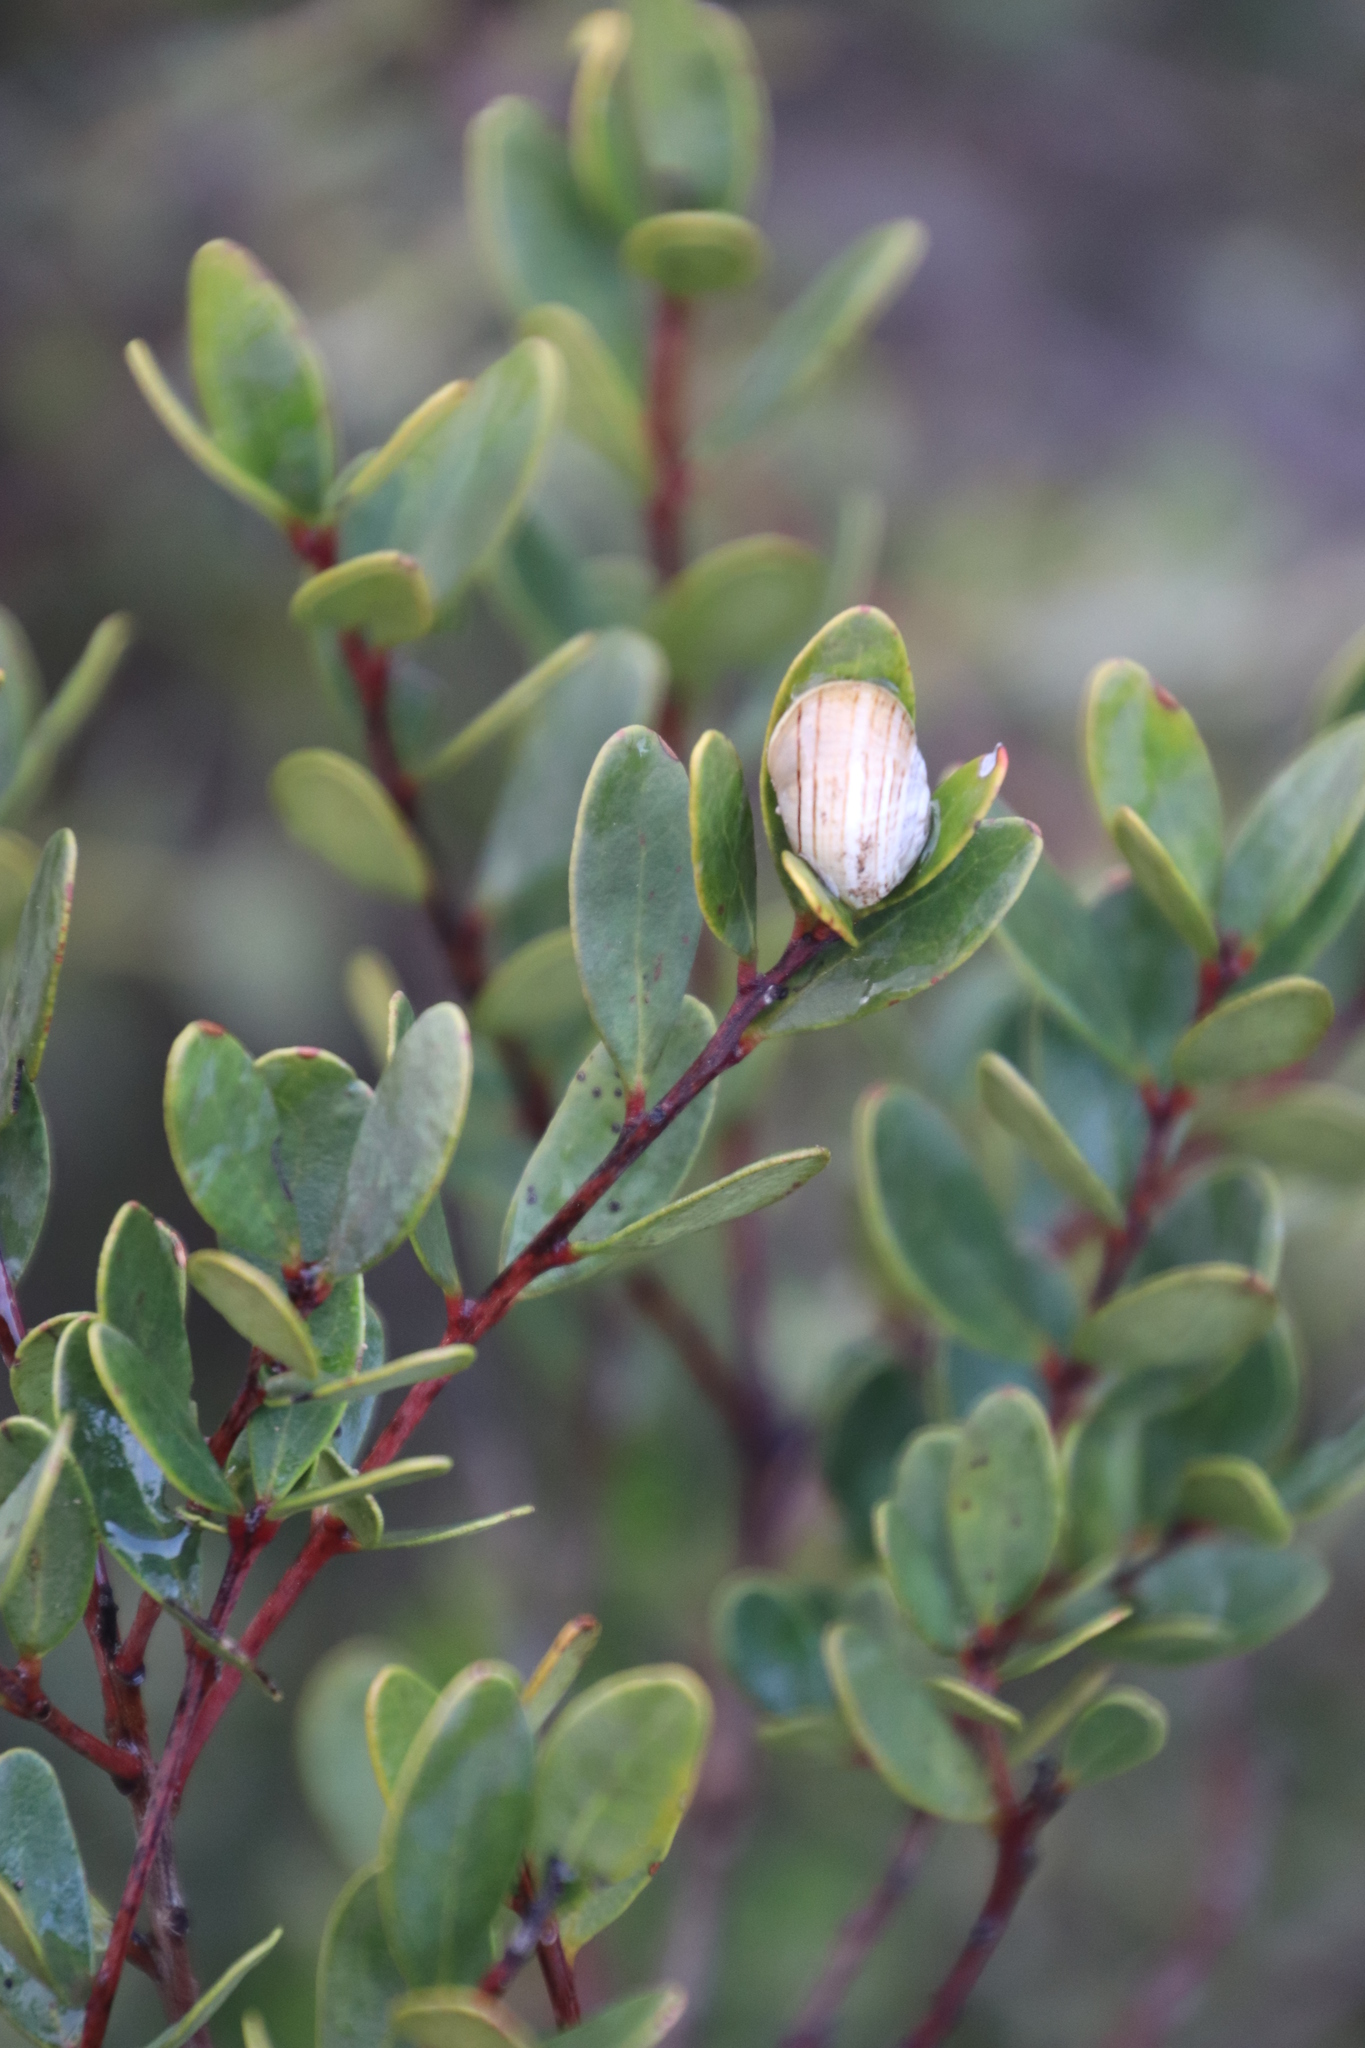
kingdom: Plantae
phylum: Tracheophyta
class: Magnoliopsida
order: Ericales
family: Ebenaceae
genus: Euclea
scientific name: Euclea racemosa
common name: Dune guarri
